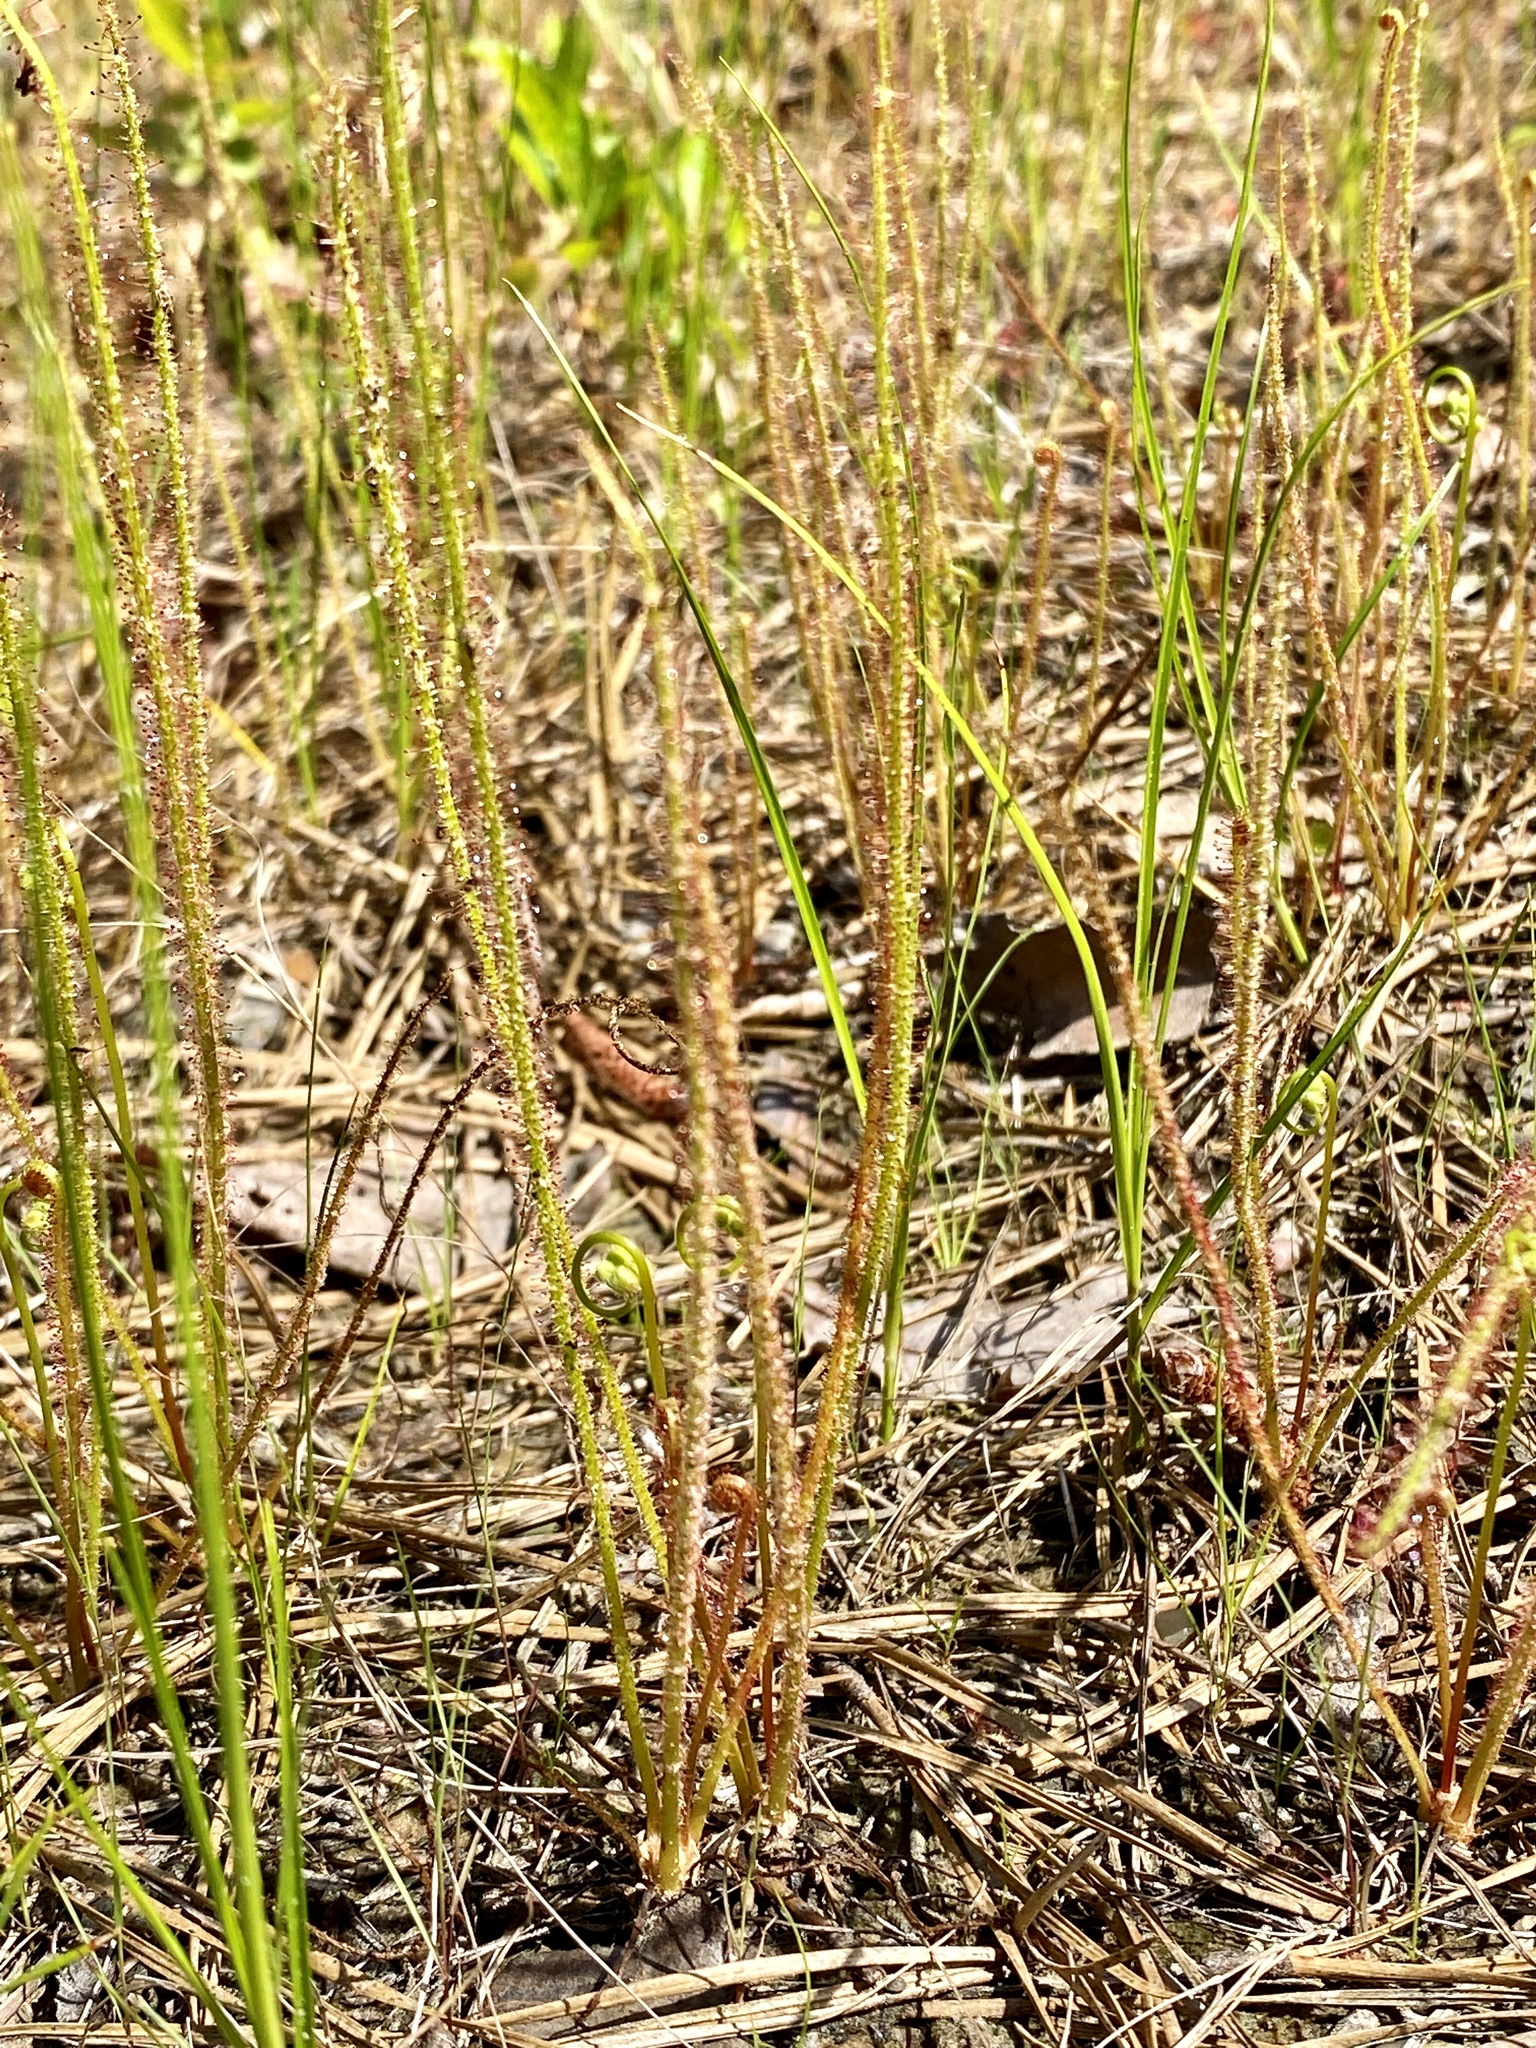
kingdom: Plantae
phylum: Tracheophyta
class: Magnoliopsida
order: Caryophyllales
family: Droseraceae
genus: Drosera
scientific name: Drosera filiformis
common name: Dew-thread
